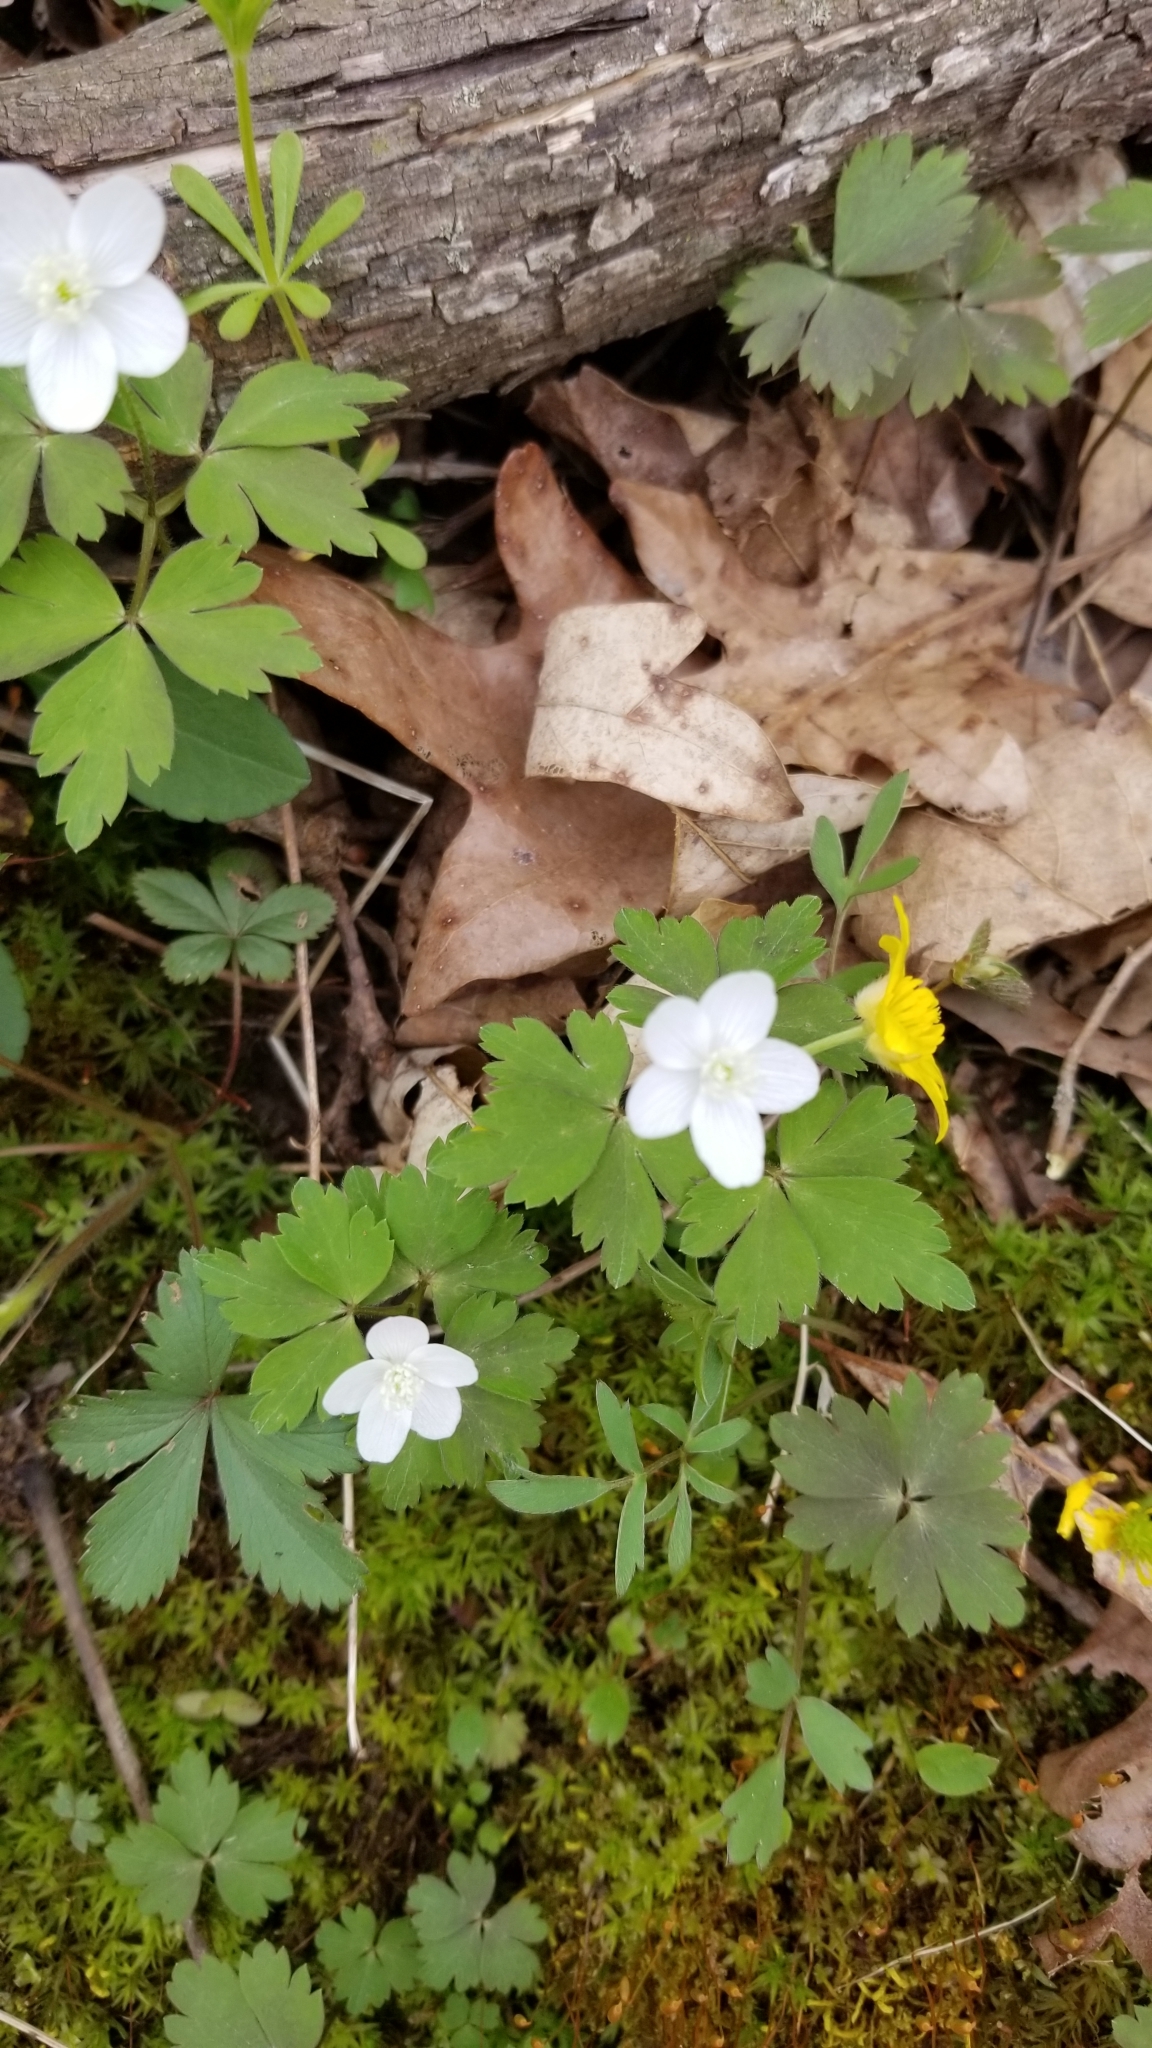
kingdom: Plantae
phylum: Tracheophyta
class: Magnoliopsida
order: Ranunculales
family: Ranunculaceae
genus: Anemone
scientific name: Anemone quinquefolia
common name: Wood anemone
